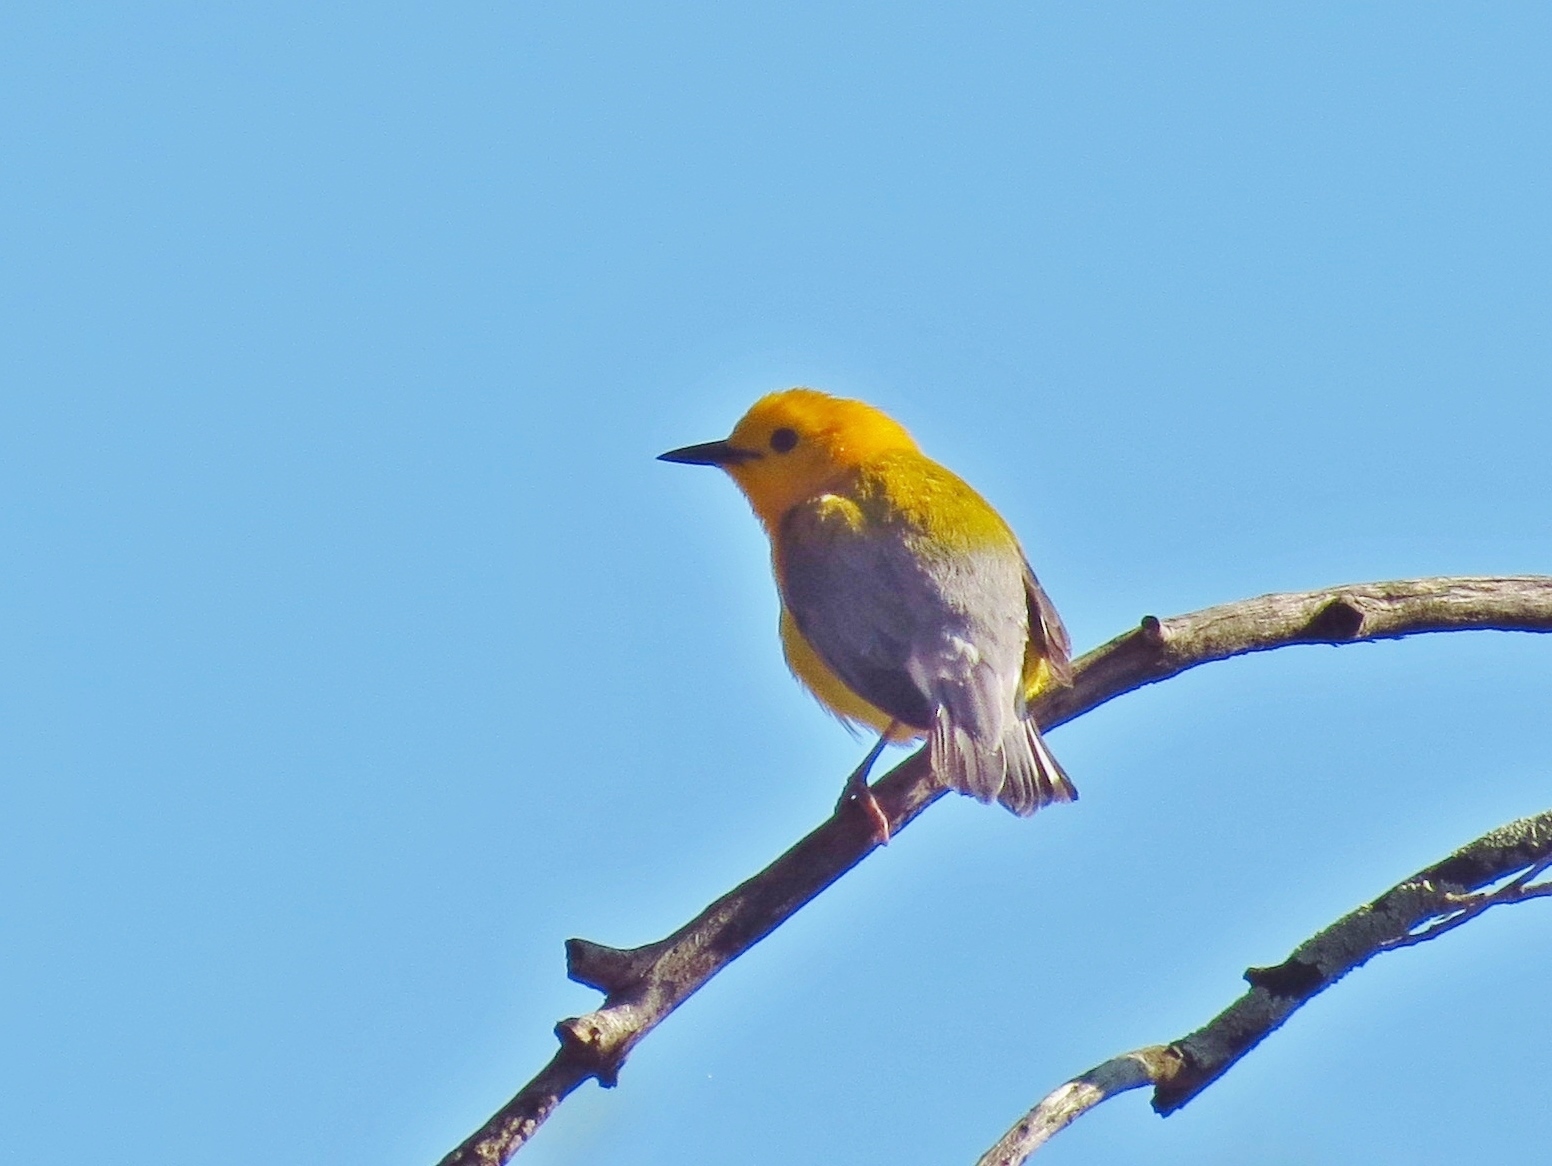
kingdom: Animalia
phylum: Chordata
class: Aves
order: Passeriformes
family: Parulidae
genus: Protonotaria
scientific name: Protonotaria citrea
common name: Prothonotary warbler
